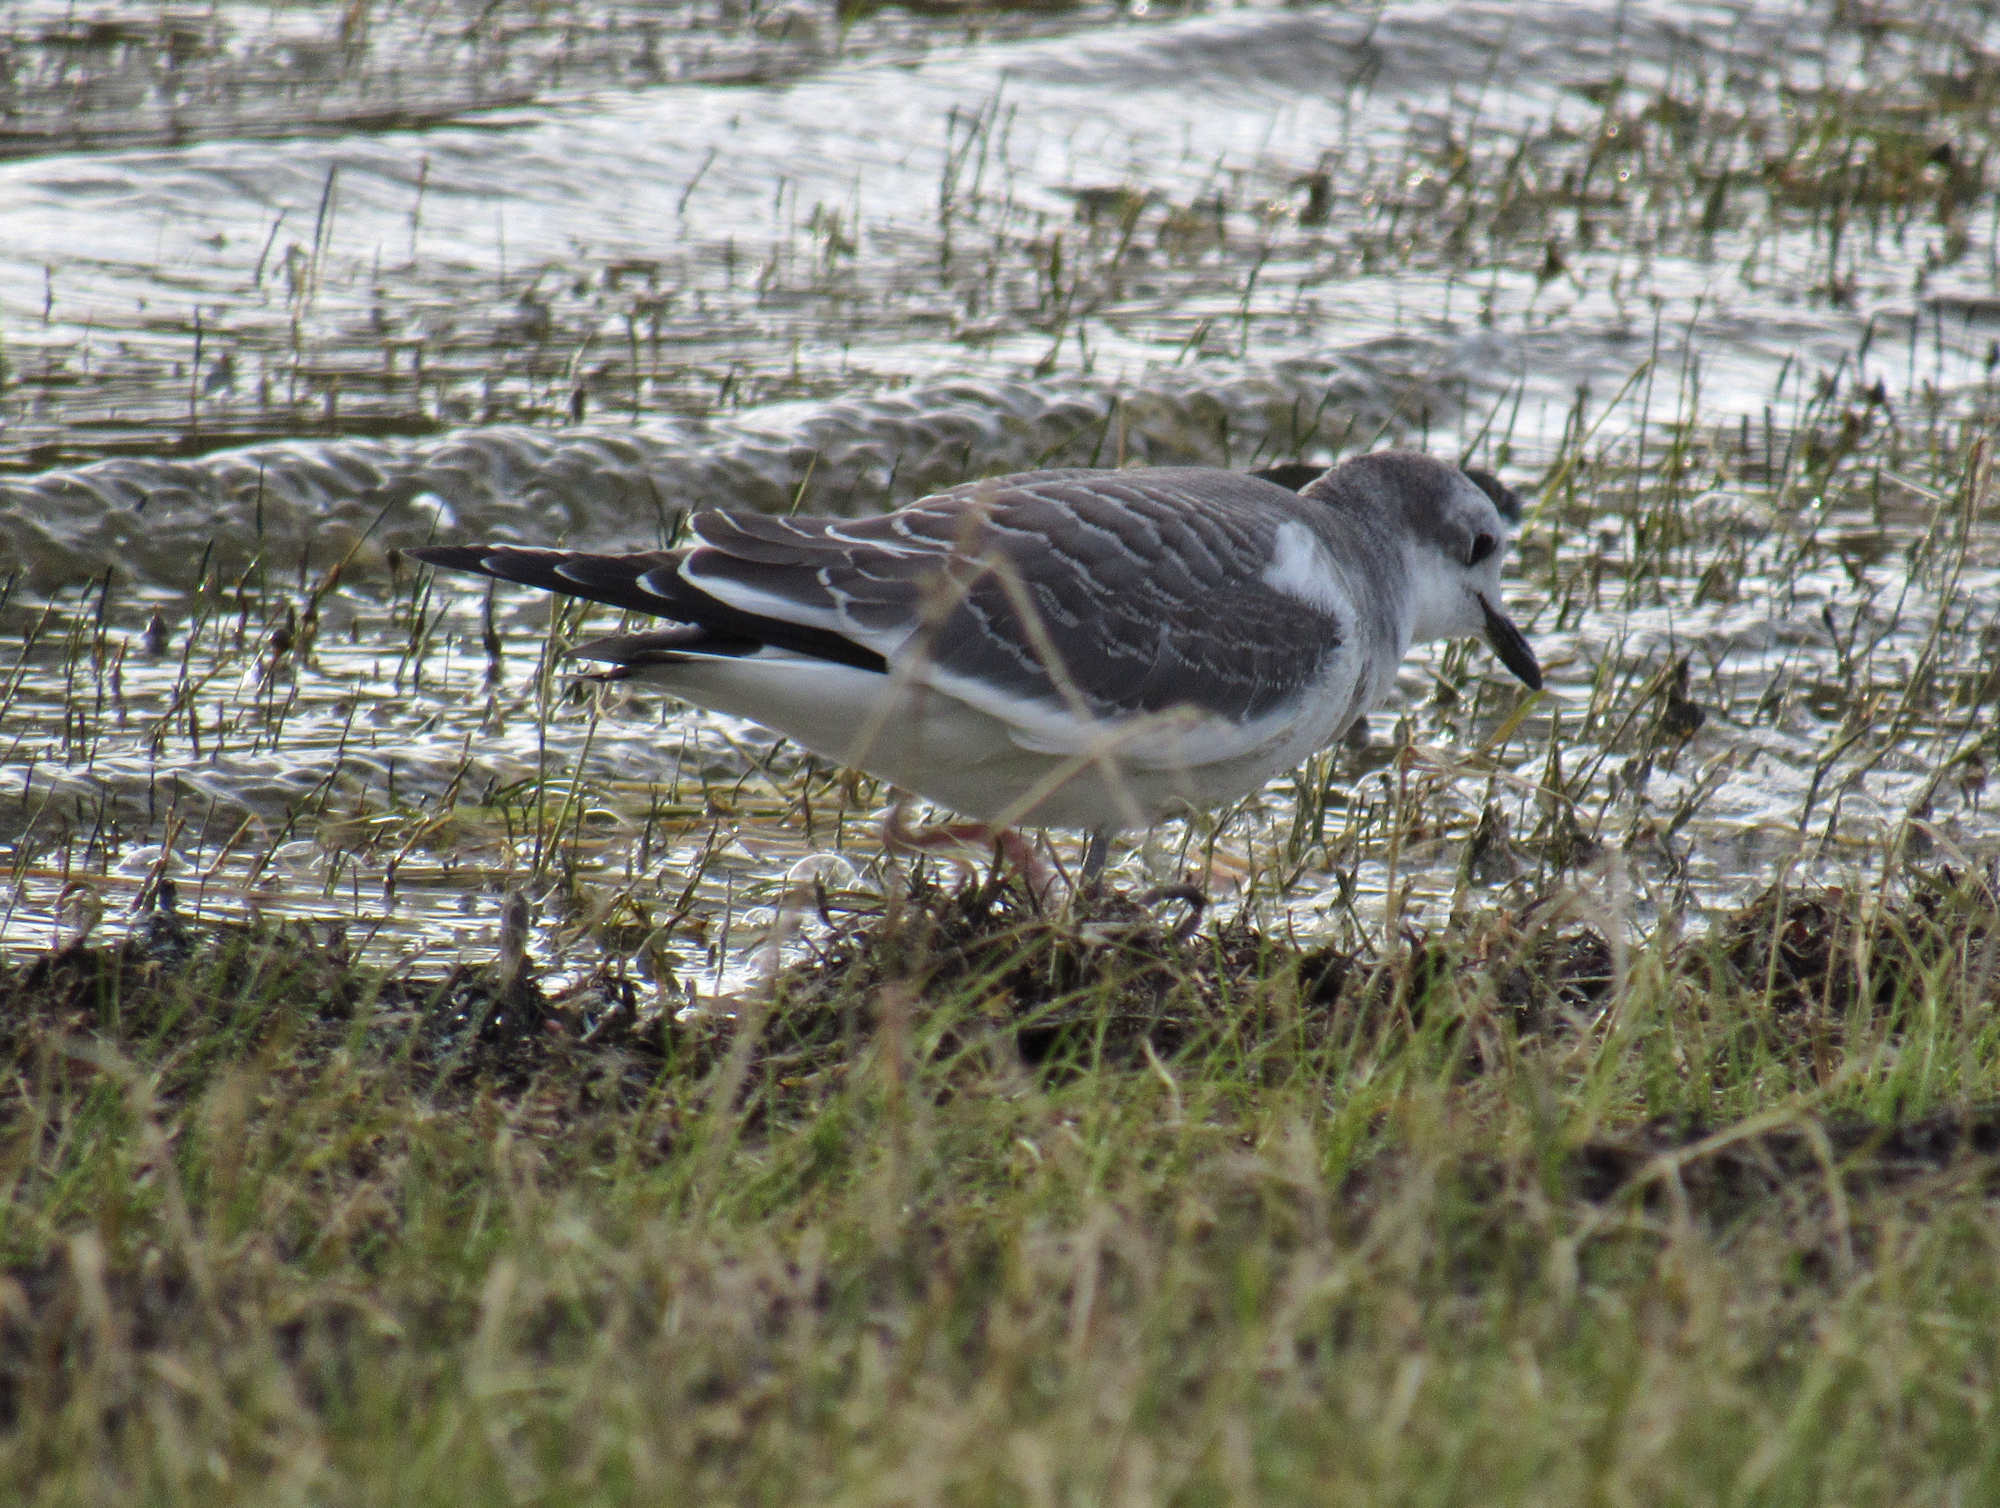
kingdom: Animalia
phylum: Chordata
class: Aves
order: Charadriiformes
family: Laridae
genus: Xema
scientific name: Xema sabini
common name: Sabine's gull
